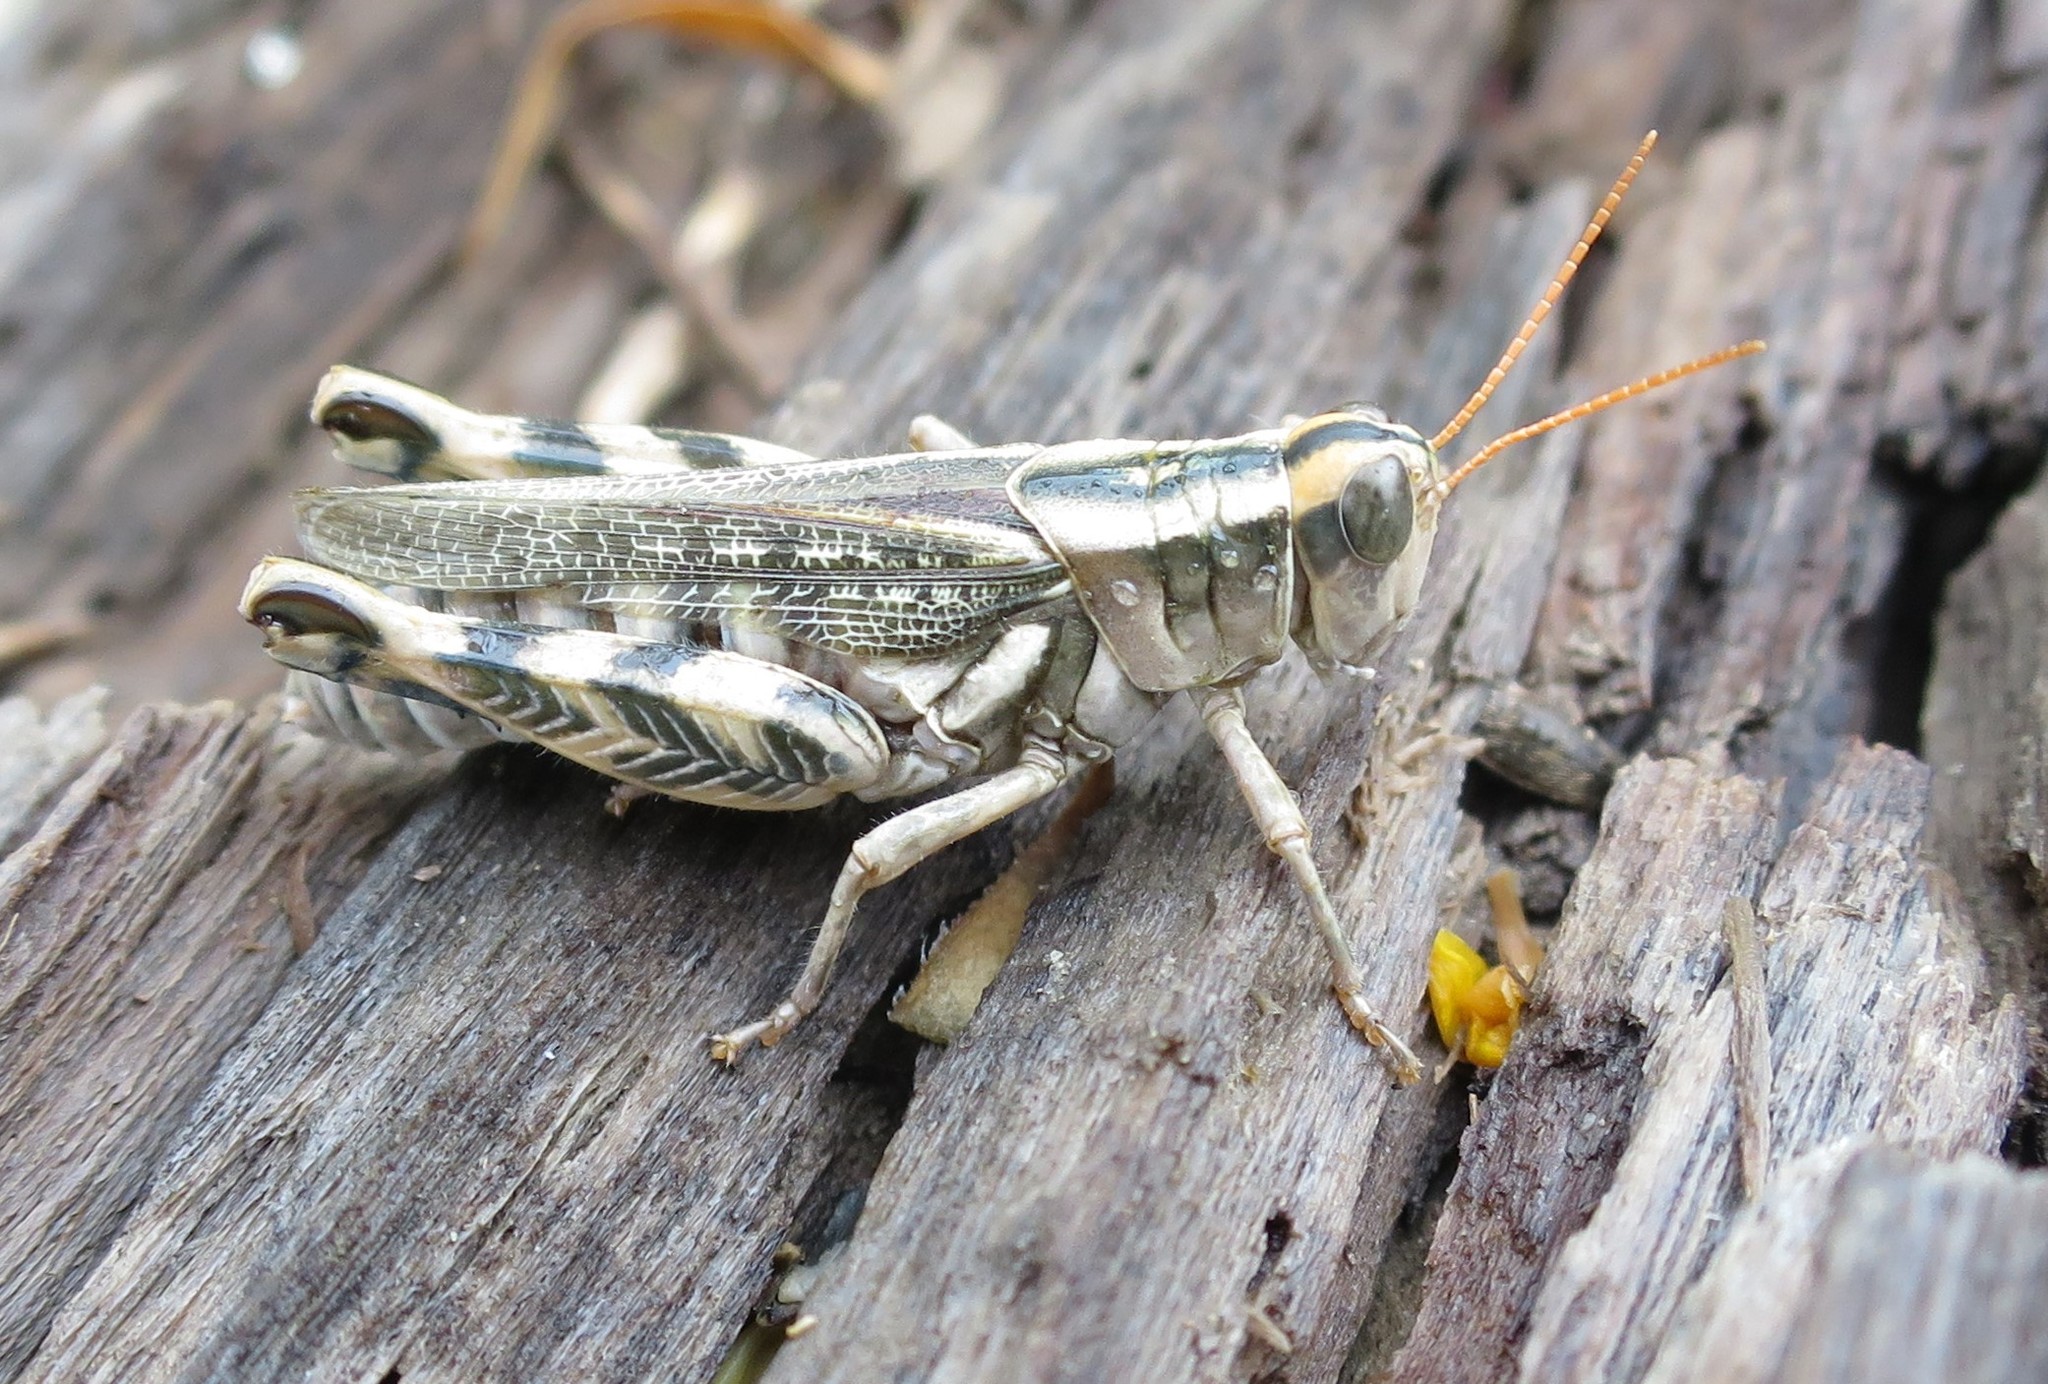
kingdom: Animalia
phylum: Arthropoda
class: Insecta
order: Orthoptera
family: Acrididae
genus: Aeoloplides
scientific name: Aeoloplides turnbulli
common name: Russianthistle grasshopper
